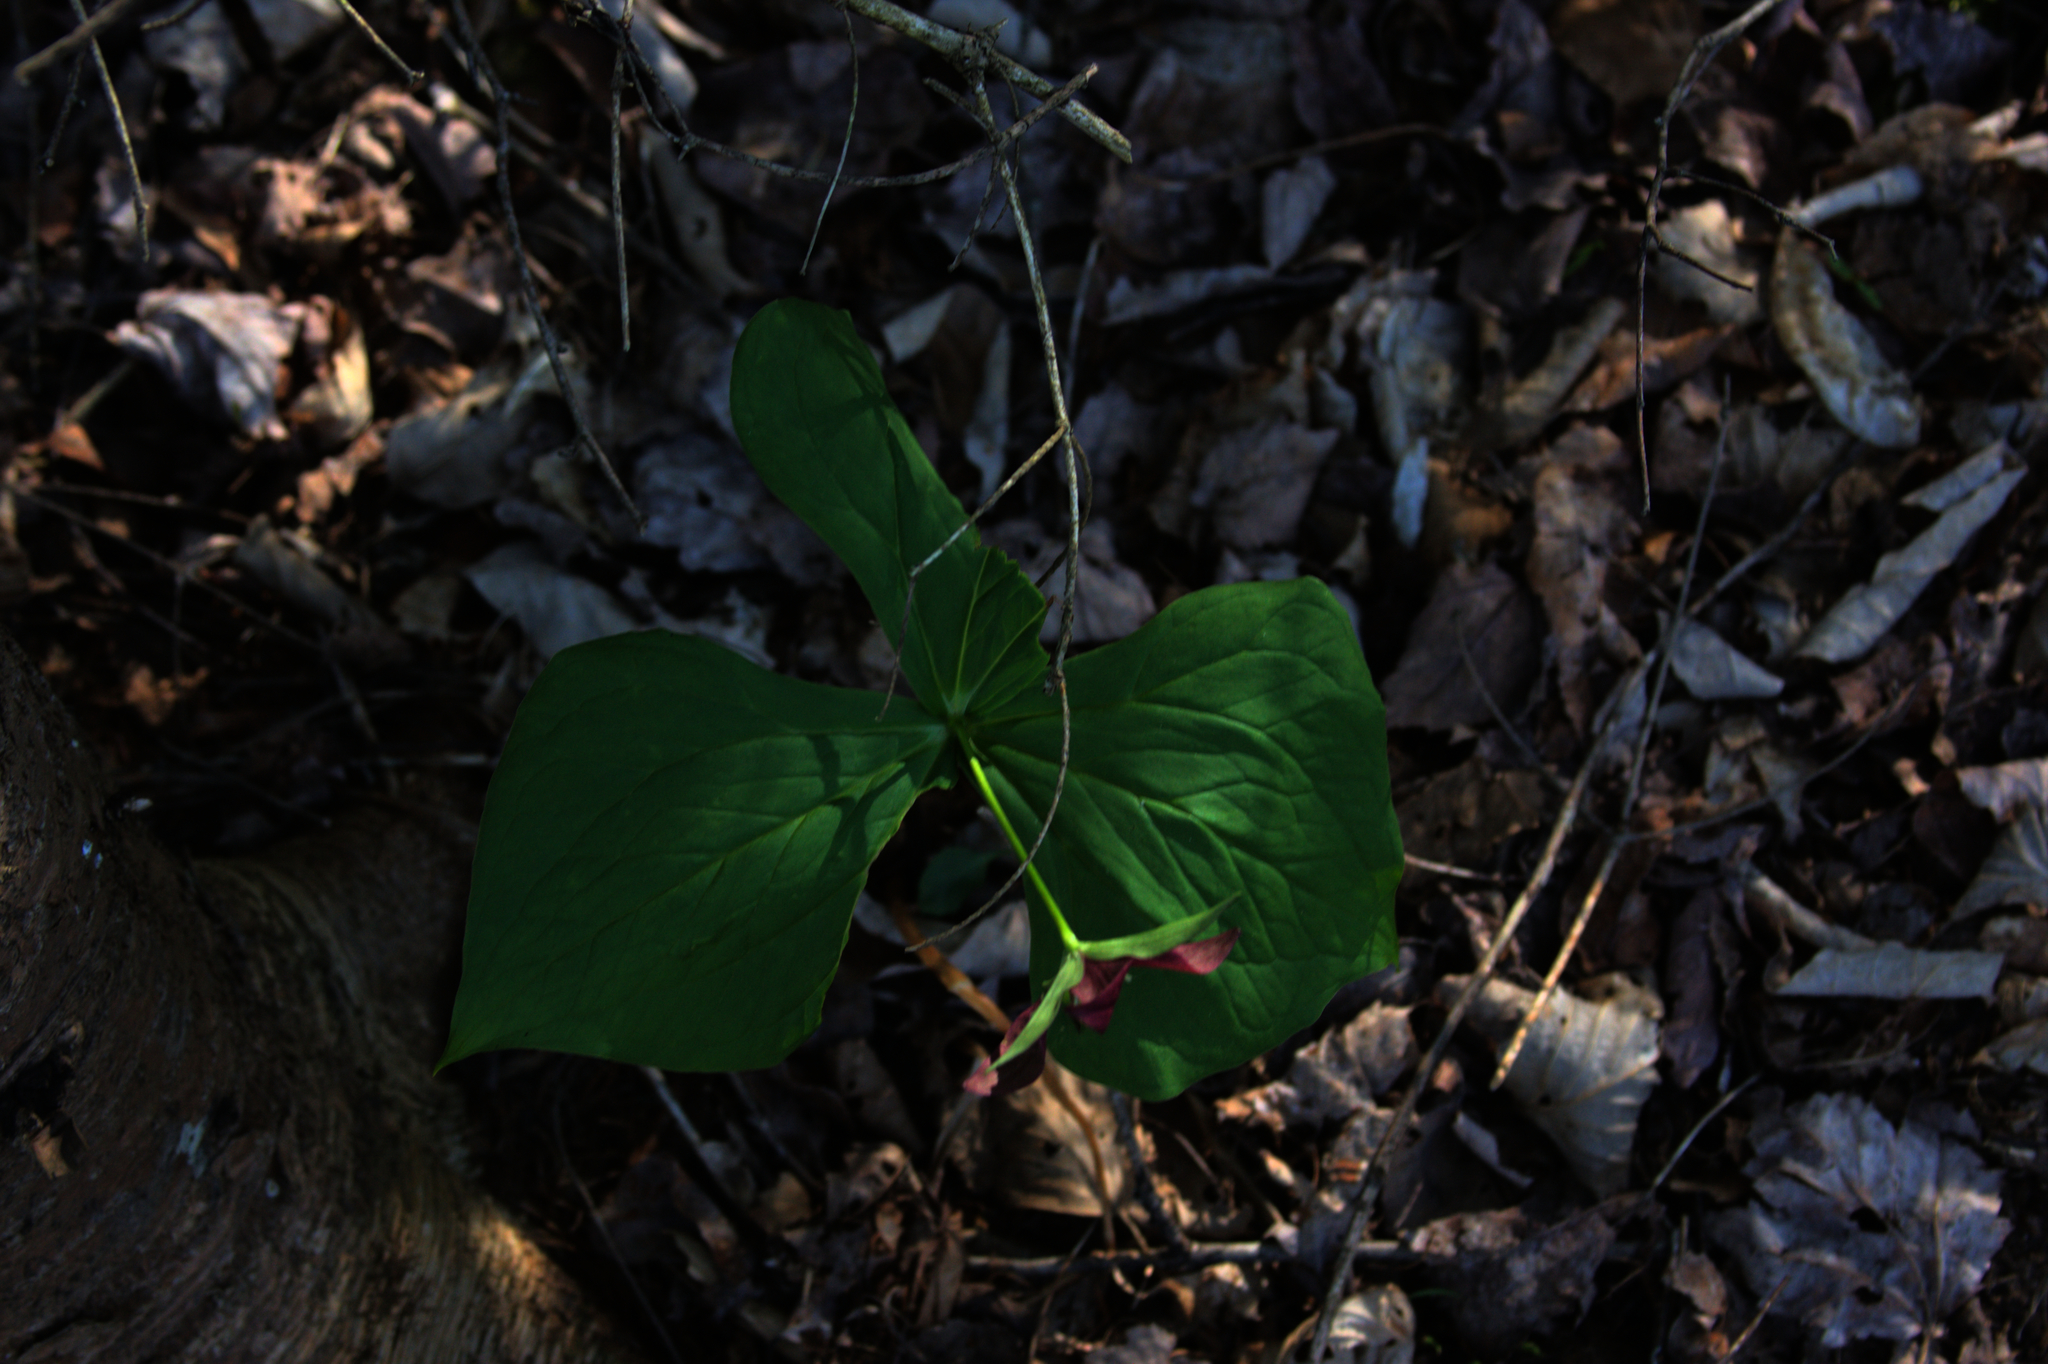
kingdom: Plantae
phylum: Tracheophyta
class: Liliopsida
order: Liliales
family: Melanthiaceae
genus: Trillium
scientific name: Trillium erectum
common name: Purple trillium
